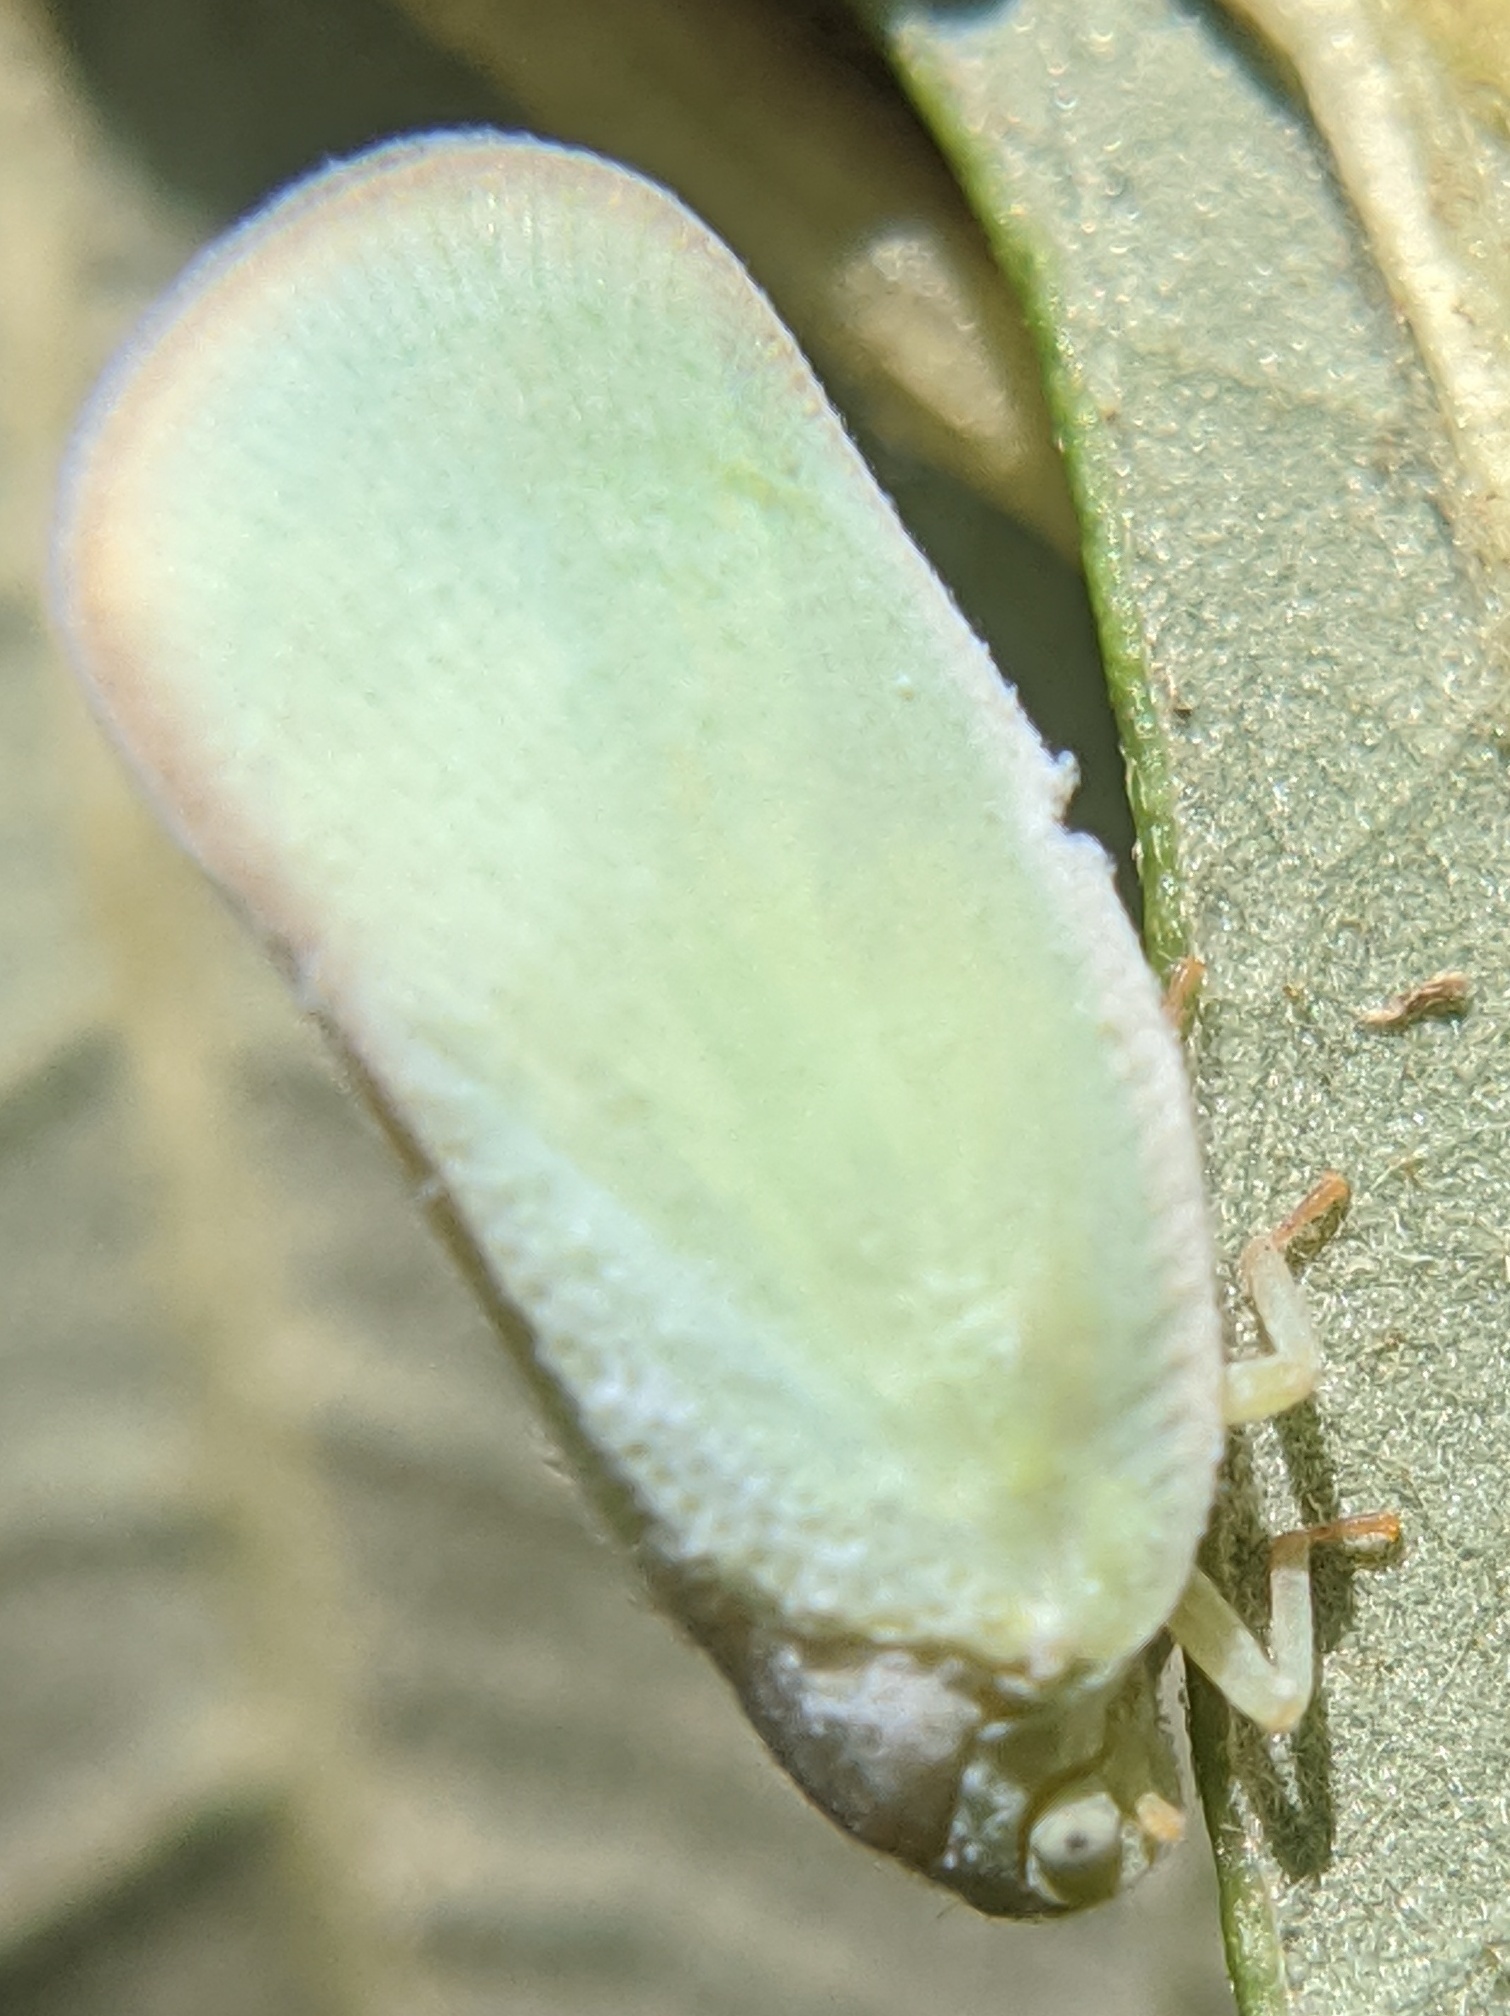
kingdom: Animalia
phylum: Arthropoda
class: Insecta
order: Hemiptera
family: Flatidae
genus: Ormenoides
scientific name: Ormenoides venusta
